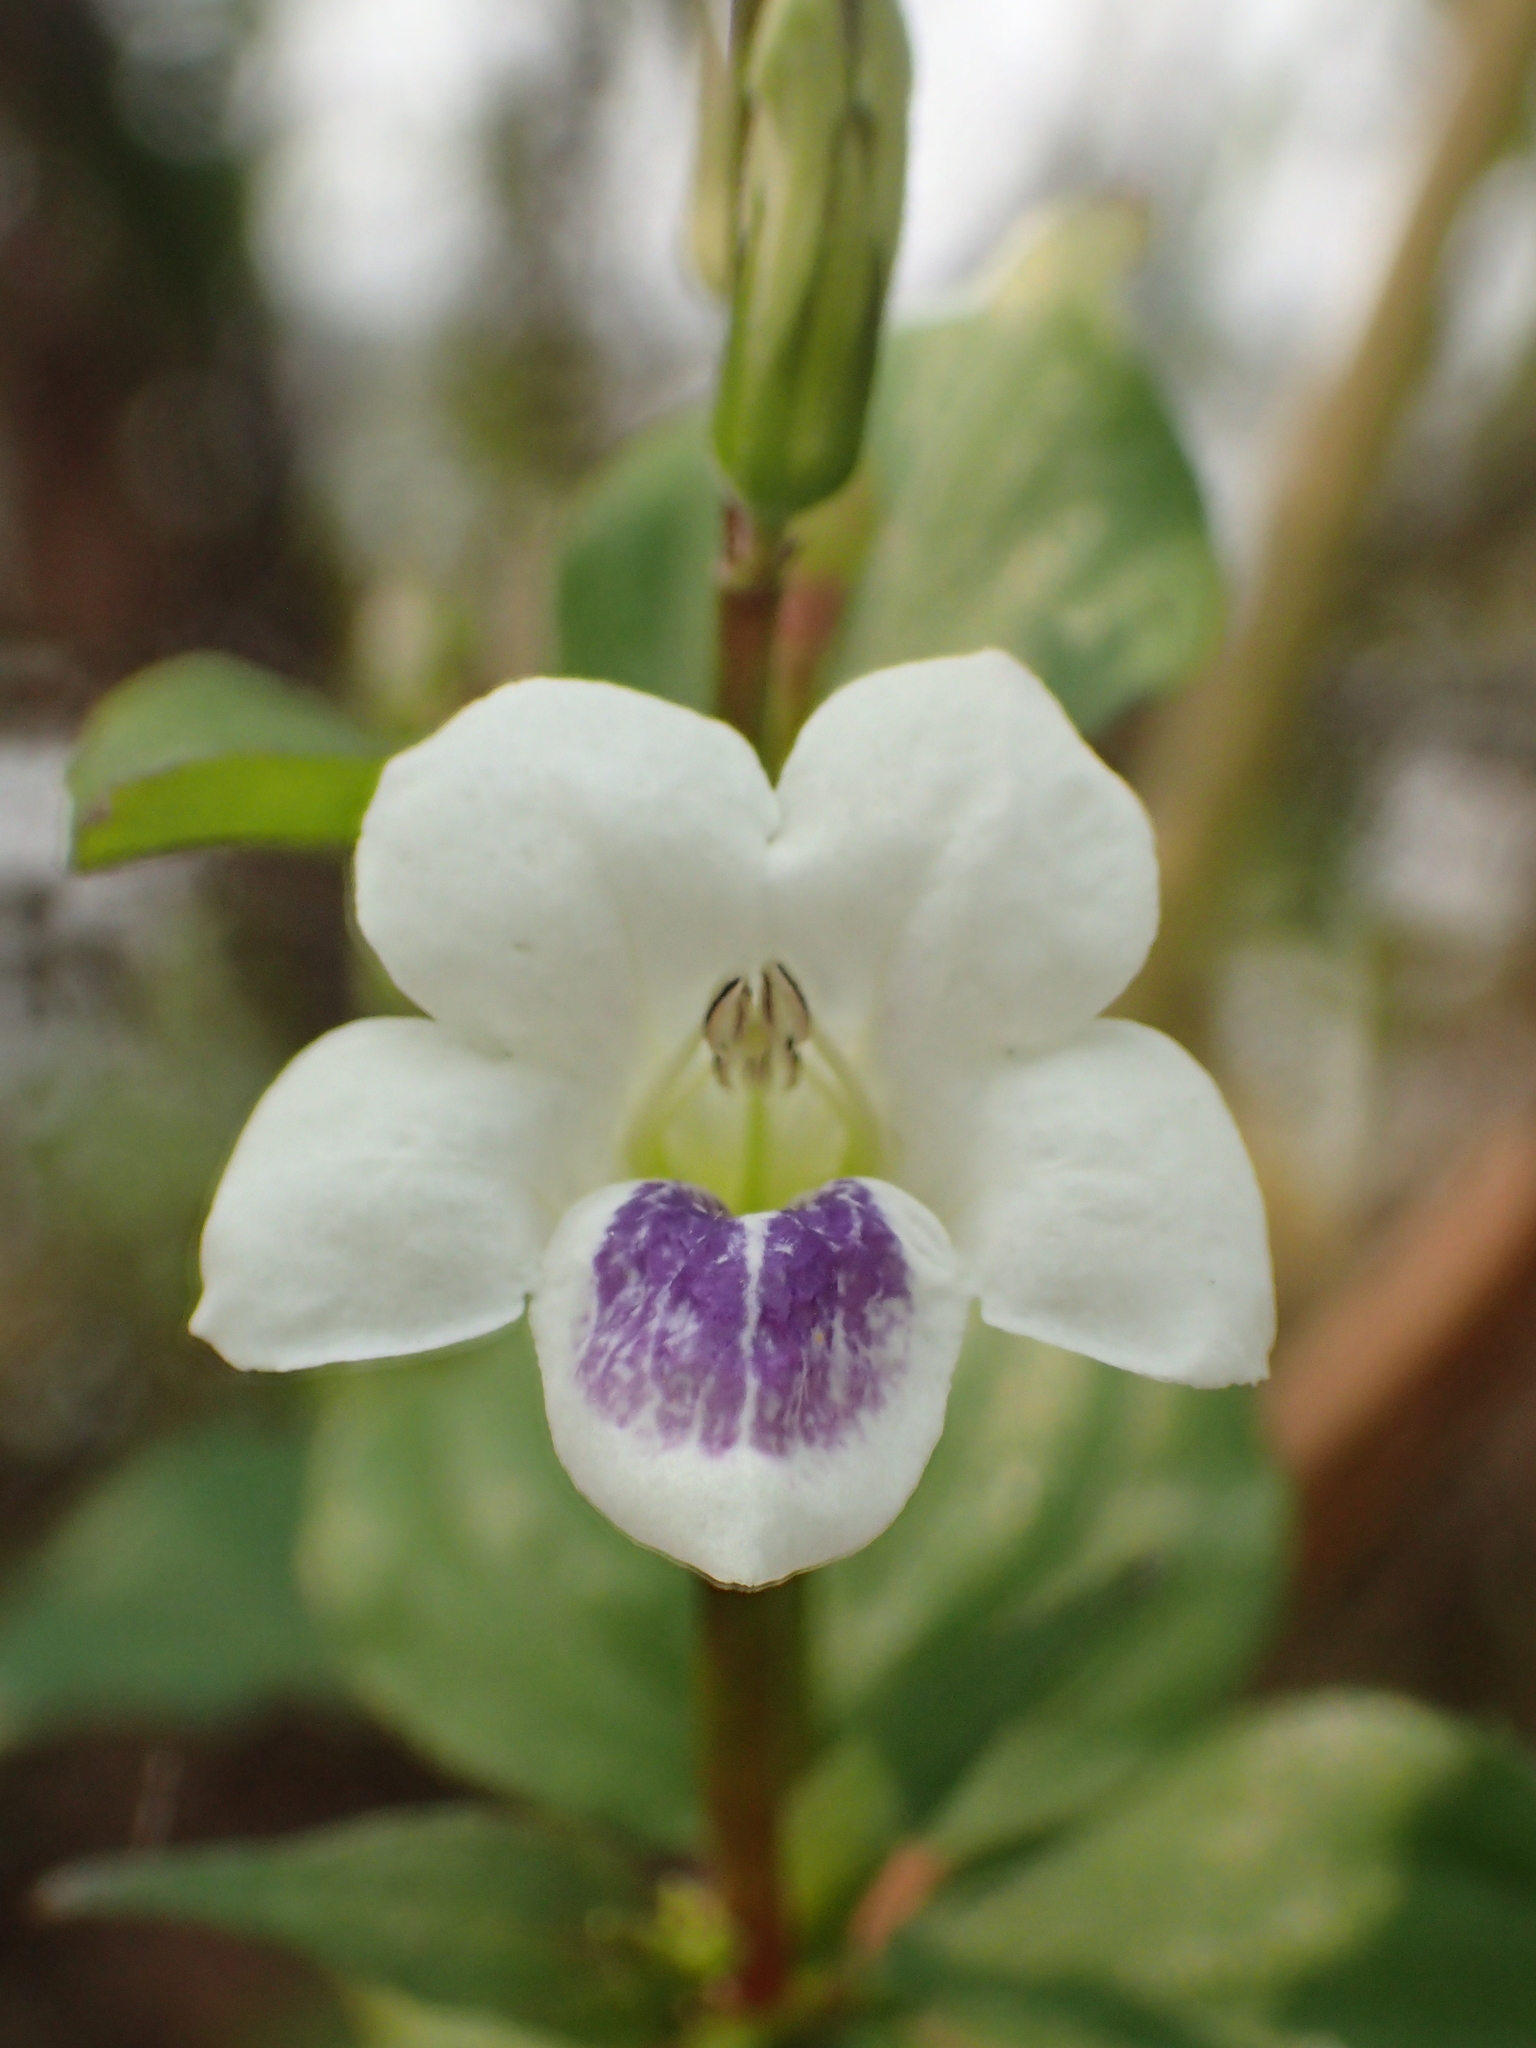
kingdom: Plantae
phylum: Tracheophyta
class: Magnoliopsida
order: Lamiales
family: Acanthaceae
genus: Asystasia
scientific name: Asystasia intrusa
